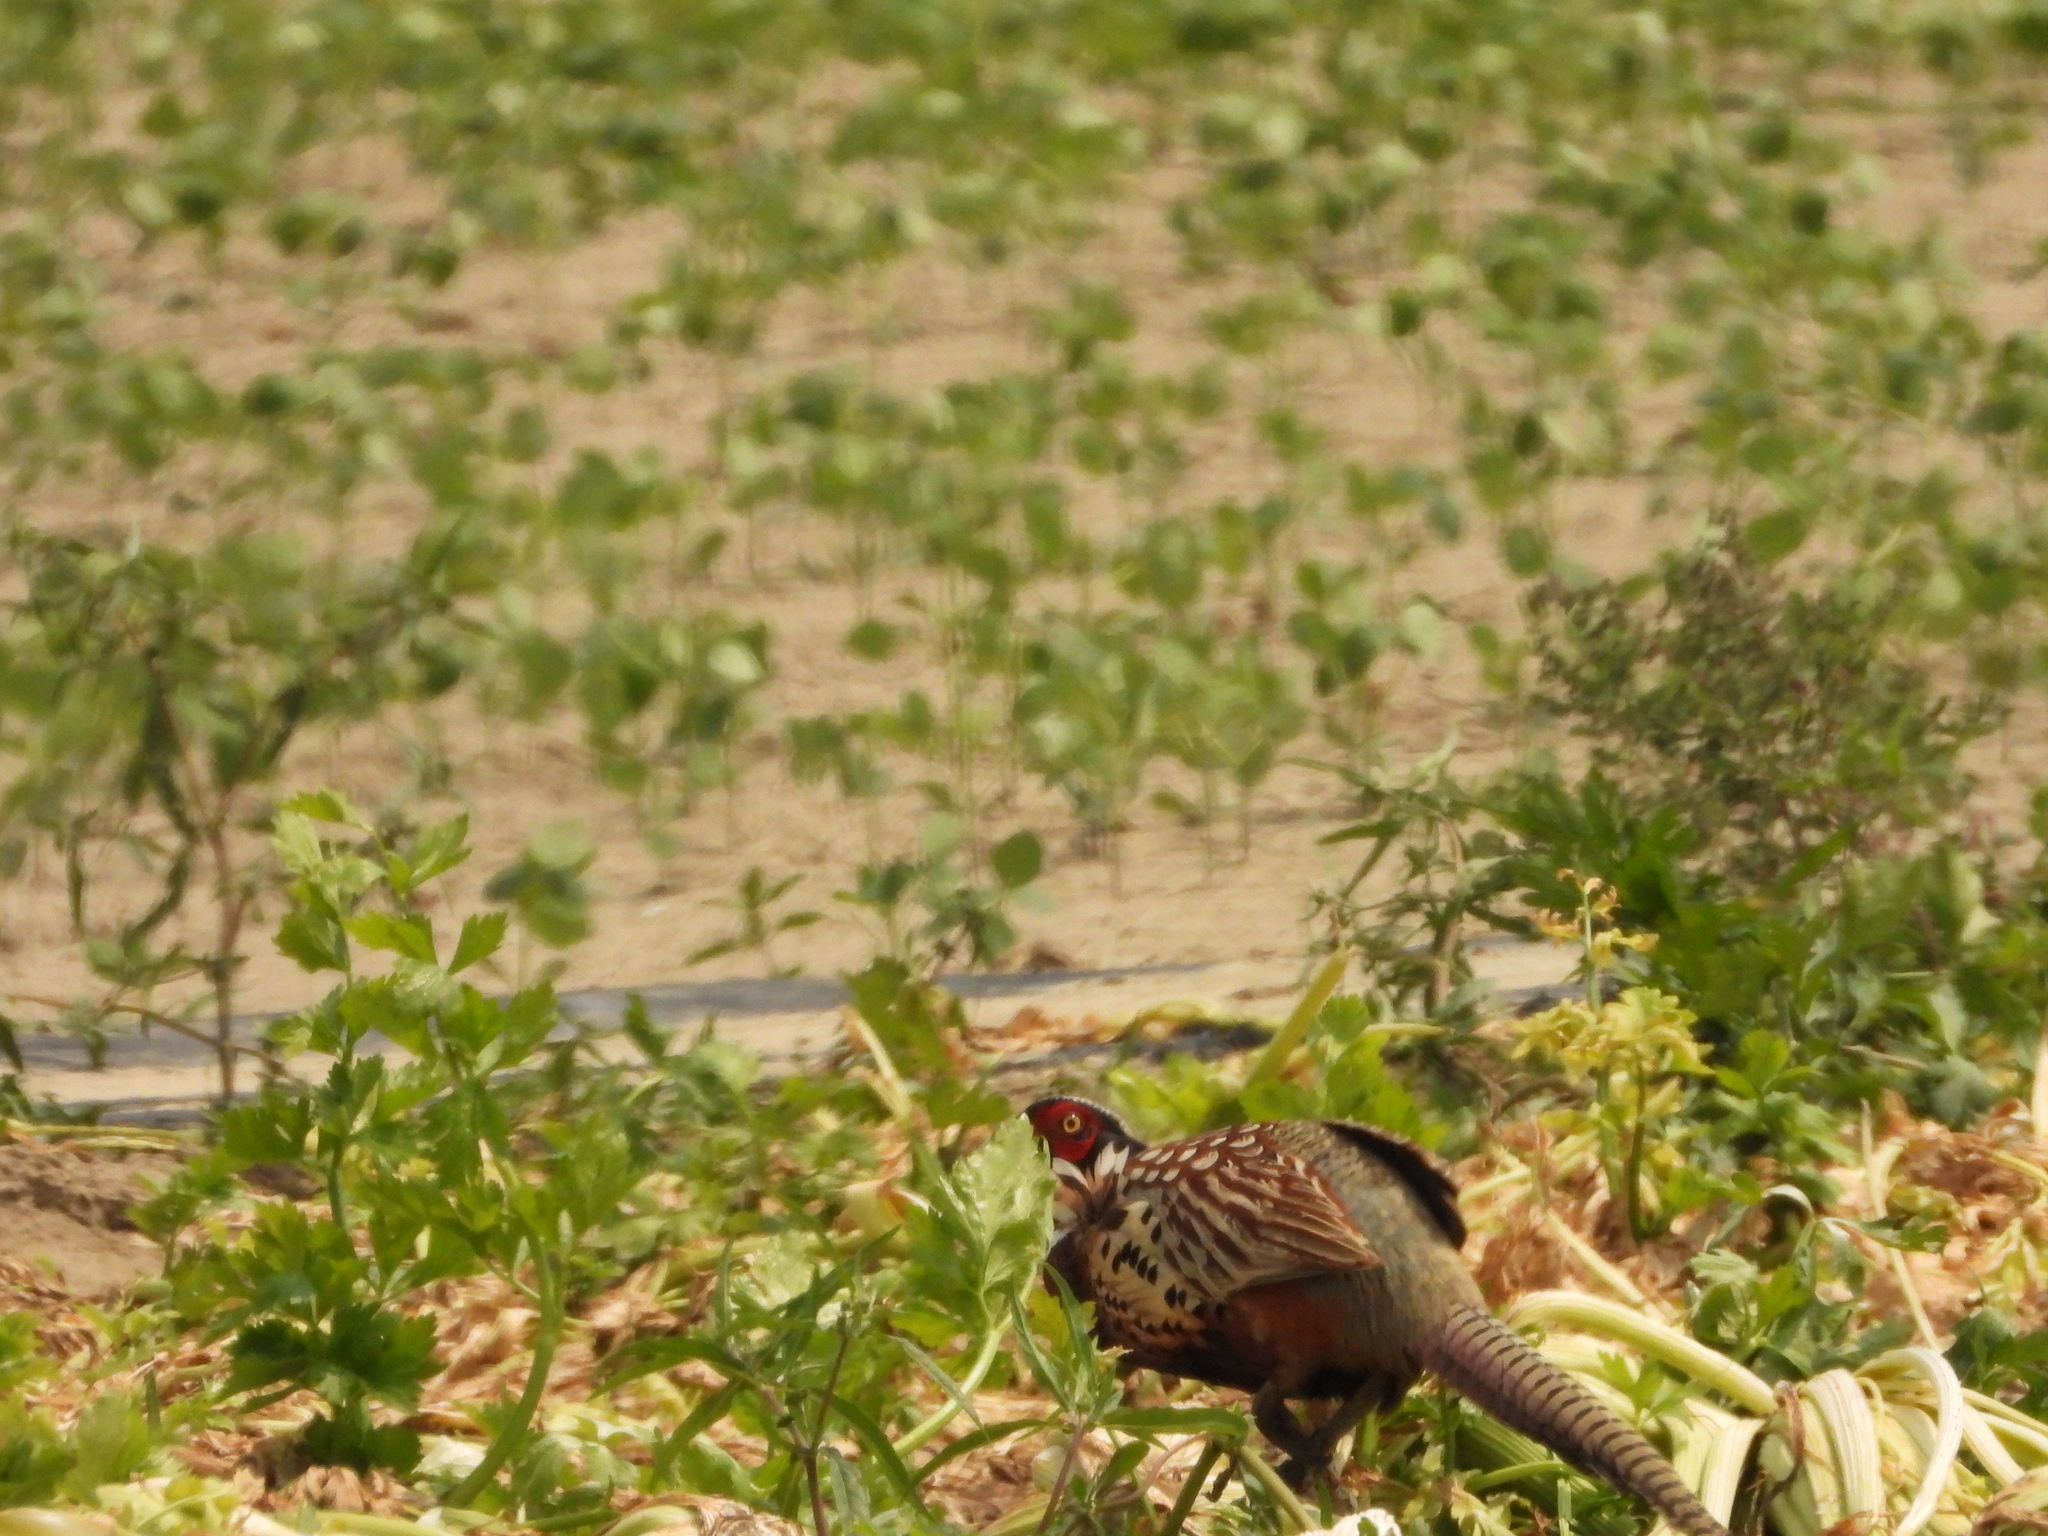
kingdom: Animalia
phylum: Chordata
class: Aves
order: Galliformes
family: Phasianidae
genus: Phasianus
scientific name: Phasianus colchicus
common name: Common pheasant
